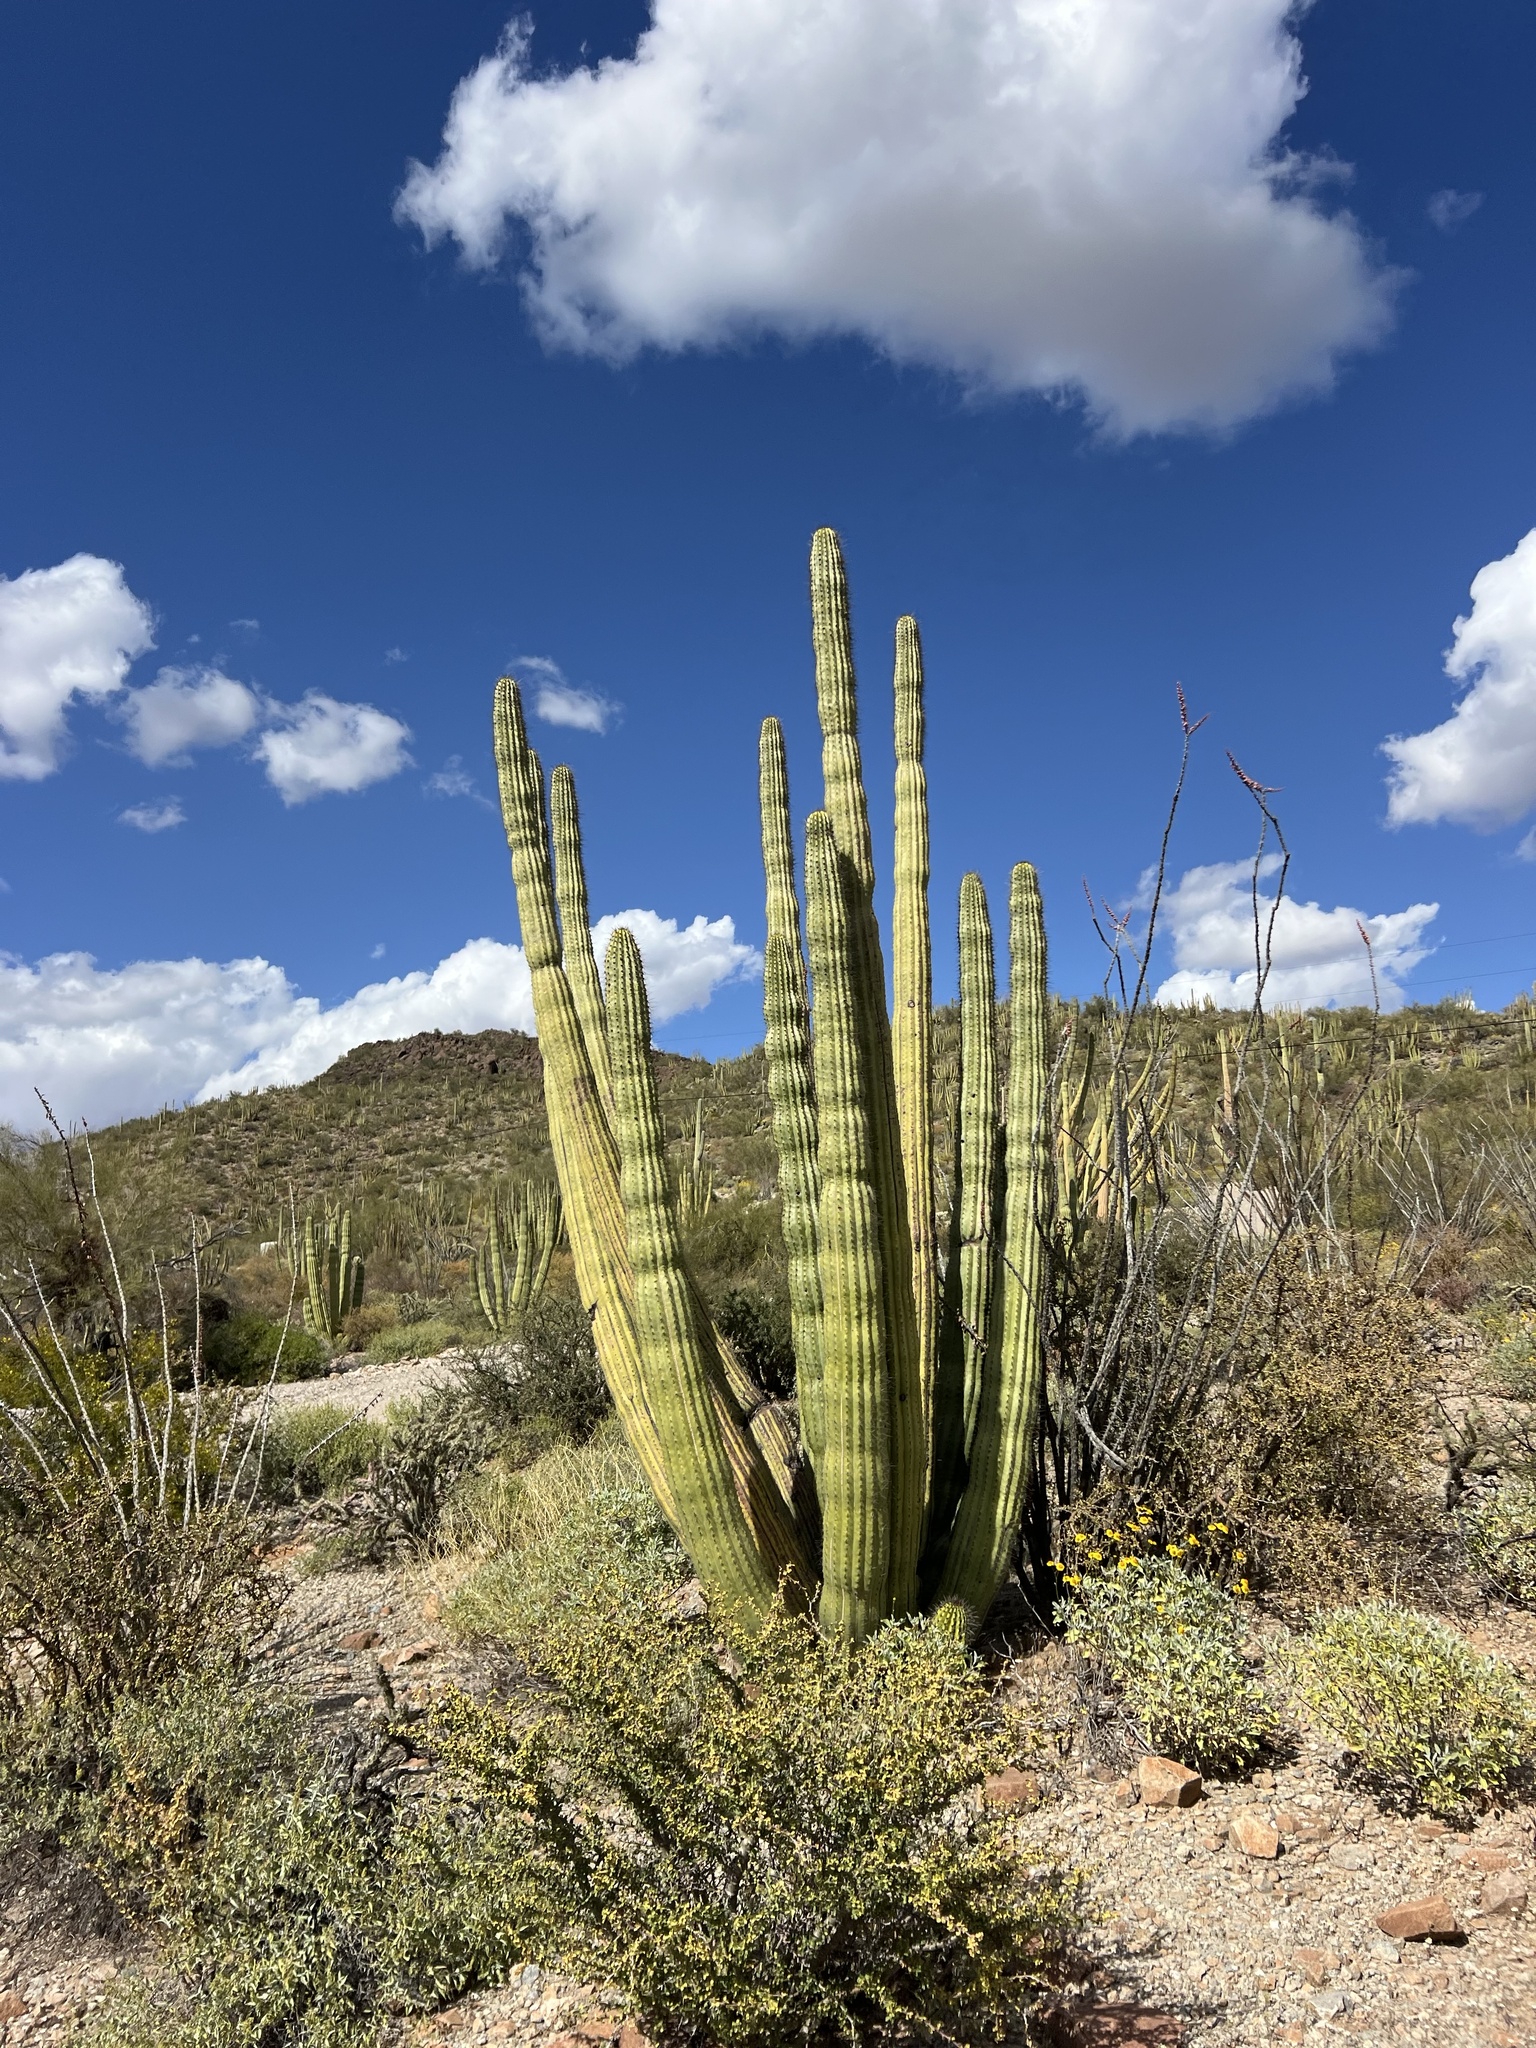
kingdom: Plantae
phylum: Tracheophyta
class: Magnoliopsida
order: Caryophyllales
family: Cactaceae
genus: Stenocereus
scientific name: Stenocereus thurberi
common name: Organ pipe cactus
